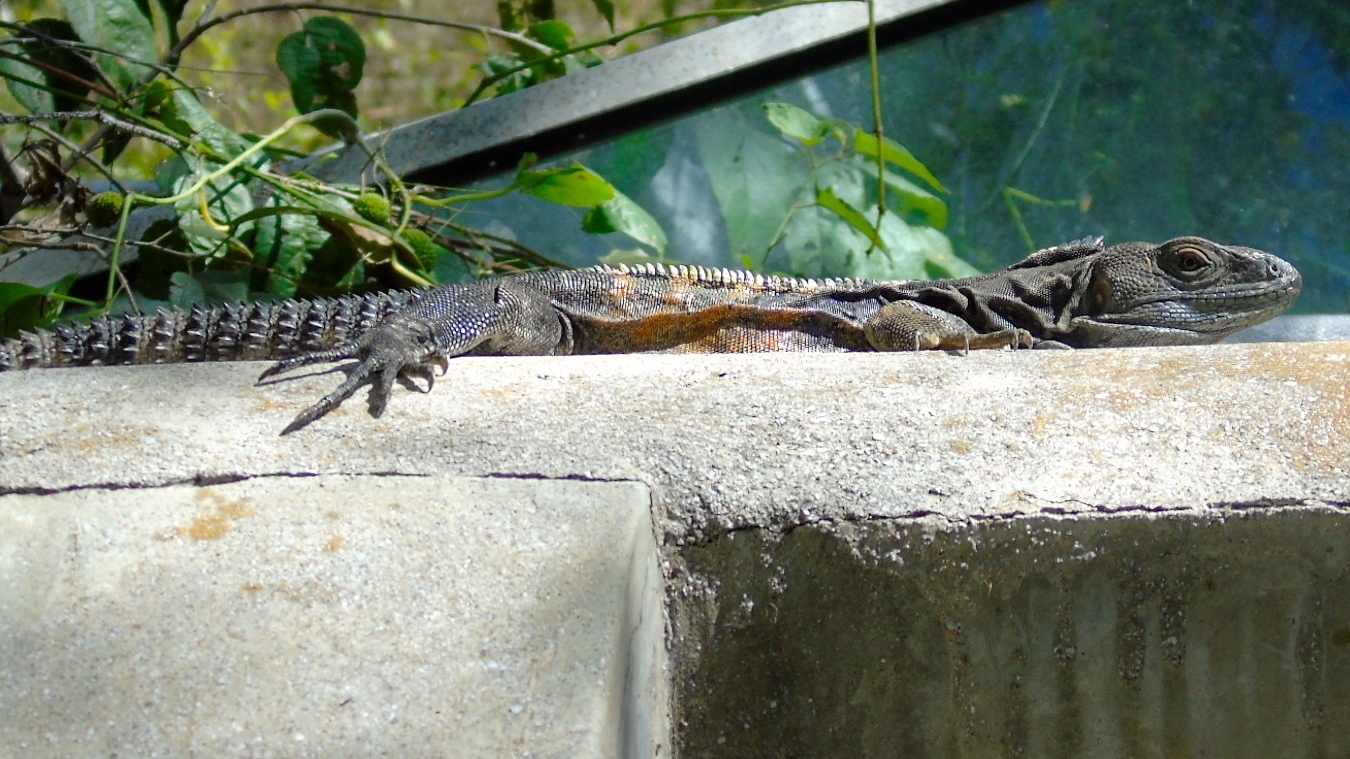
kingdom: Animalia
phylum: Chordata
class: Squamata
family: Iguanidae
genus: Ctenosaura
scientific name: Ctenosaura pectinata
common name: Guerreran spiny-tailed iguana
